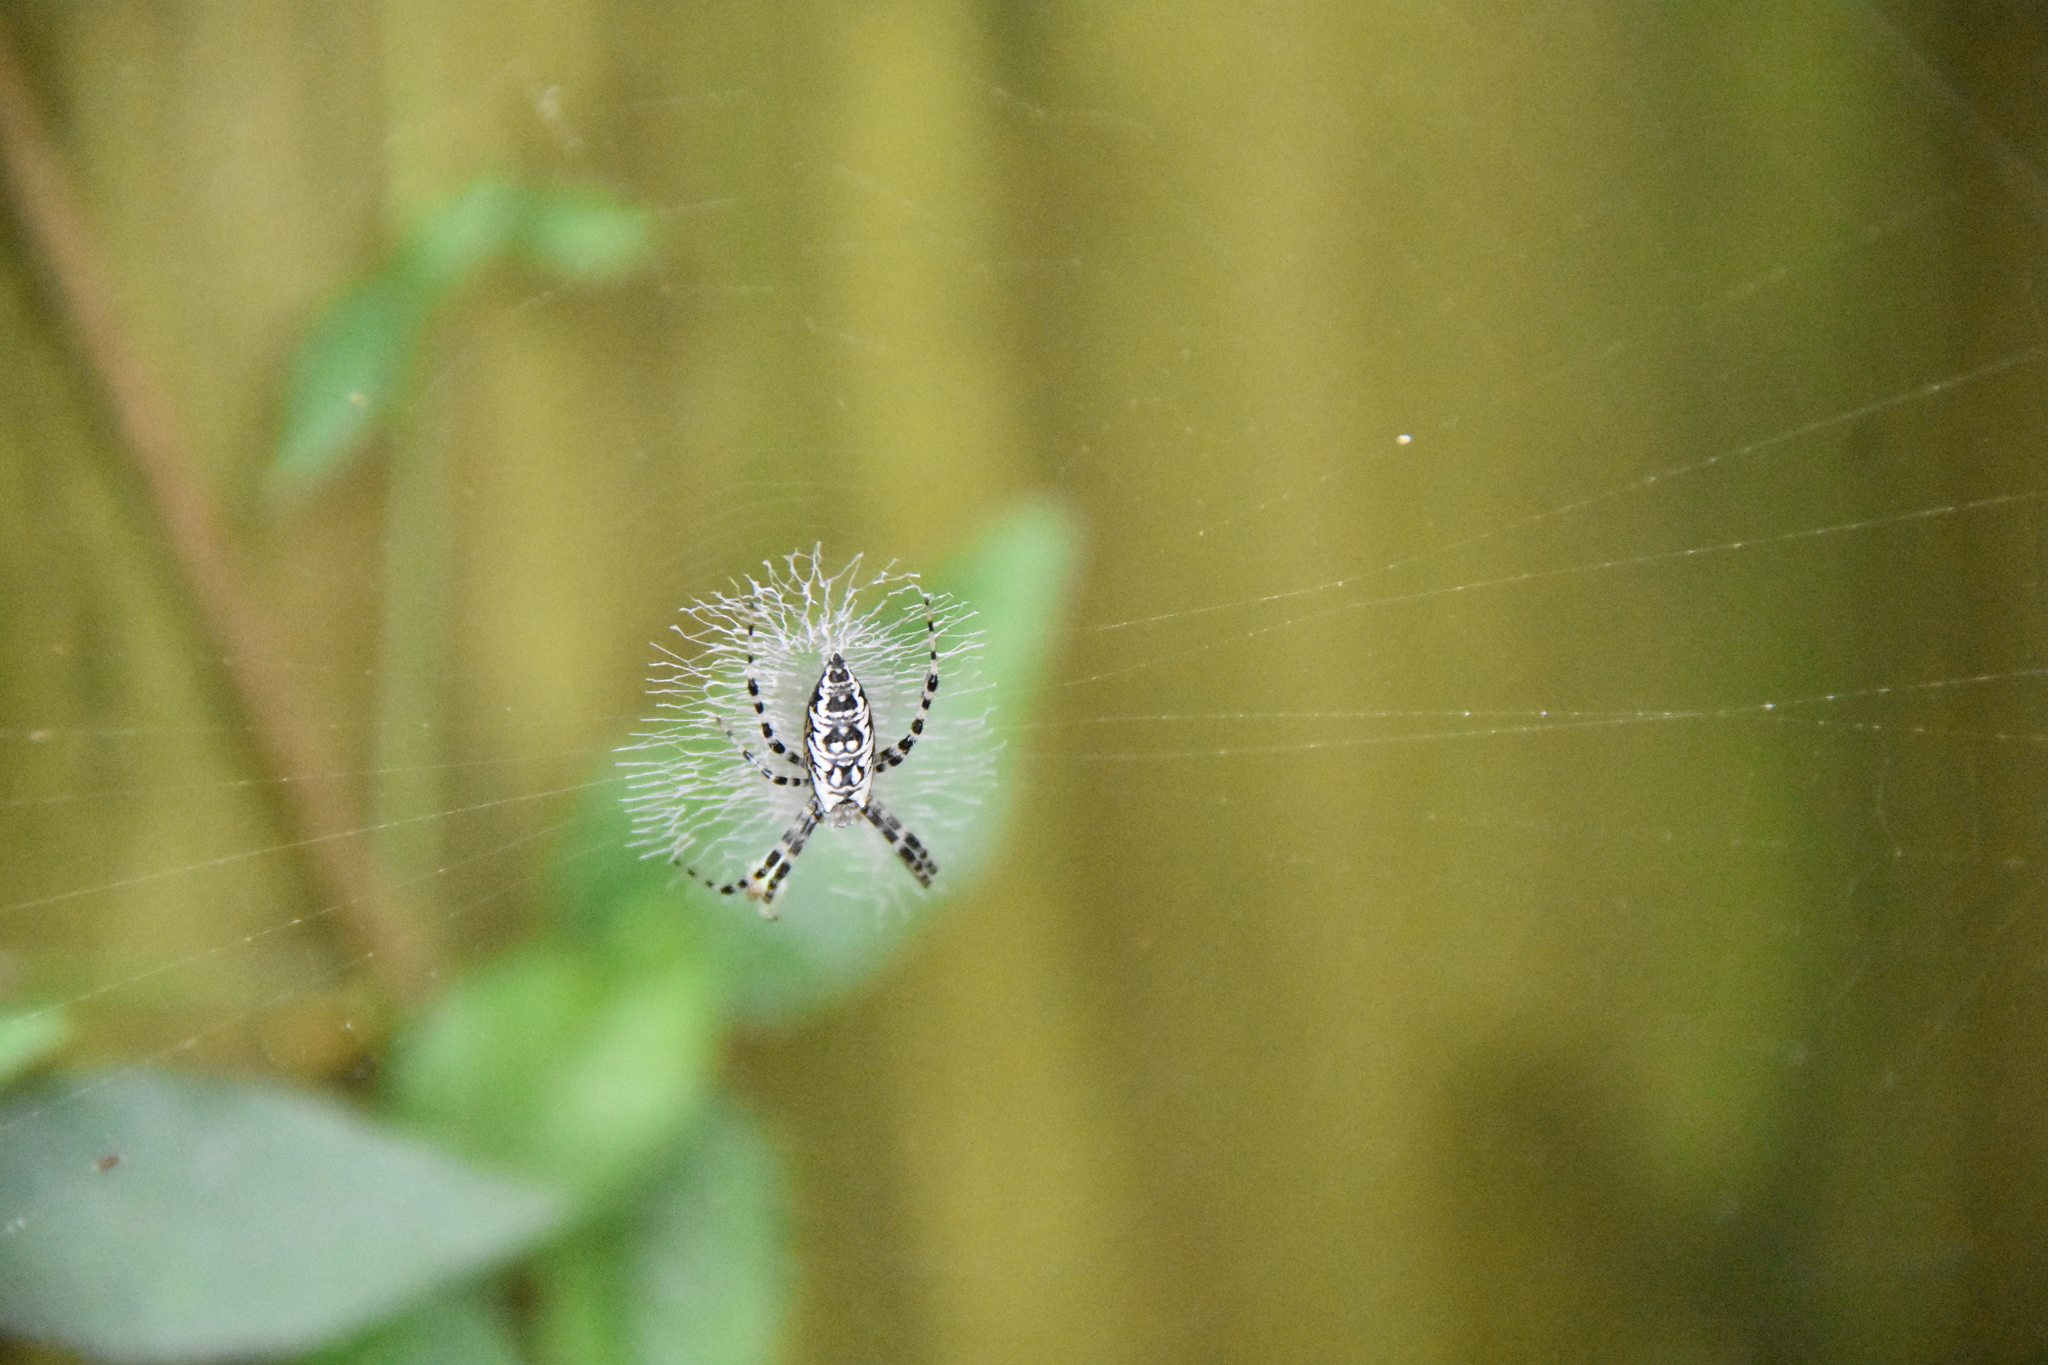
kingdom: Animalia
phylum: Arthropoda
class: Arachnida
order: Araneae
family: Araneidae
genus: Argiope
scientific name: Argiope aurantia
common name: Orb weavers
